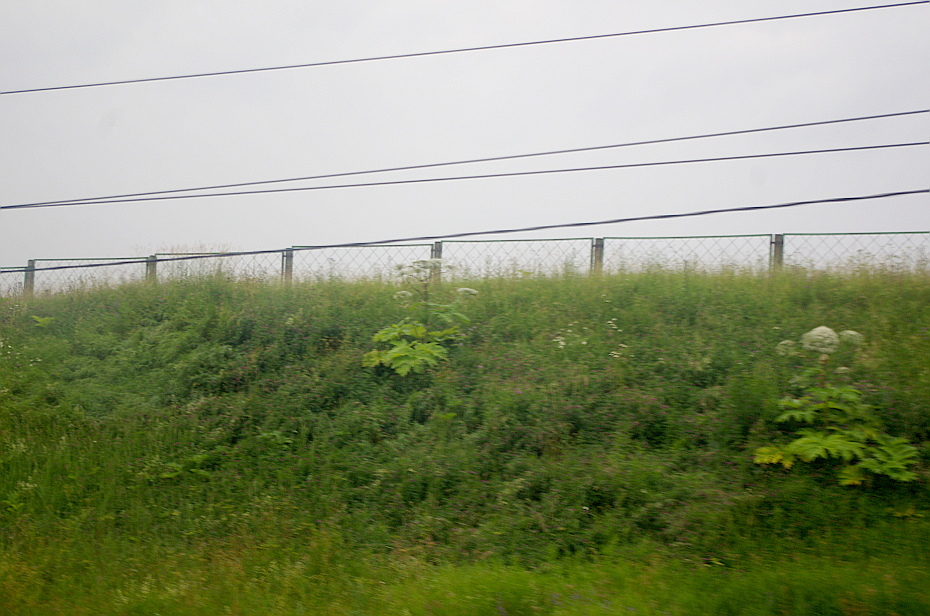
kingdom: Plantae
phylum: Tracheophyta
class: Magnoliopsida
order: Apiales
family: Apiaceae
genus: Heracleum
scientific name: Heracleum sosnowskyi
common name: Sosnowsky's hogweed
